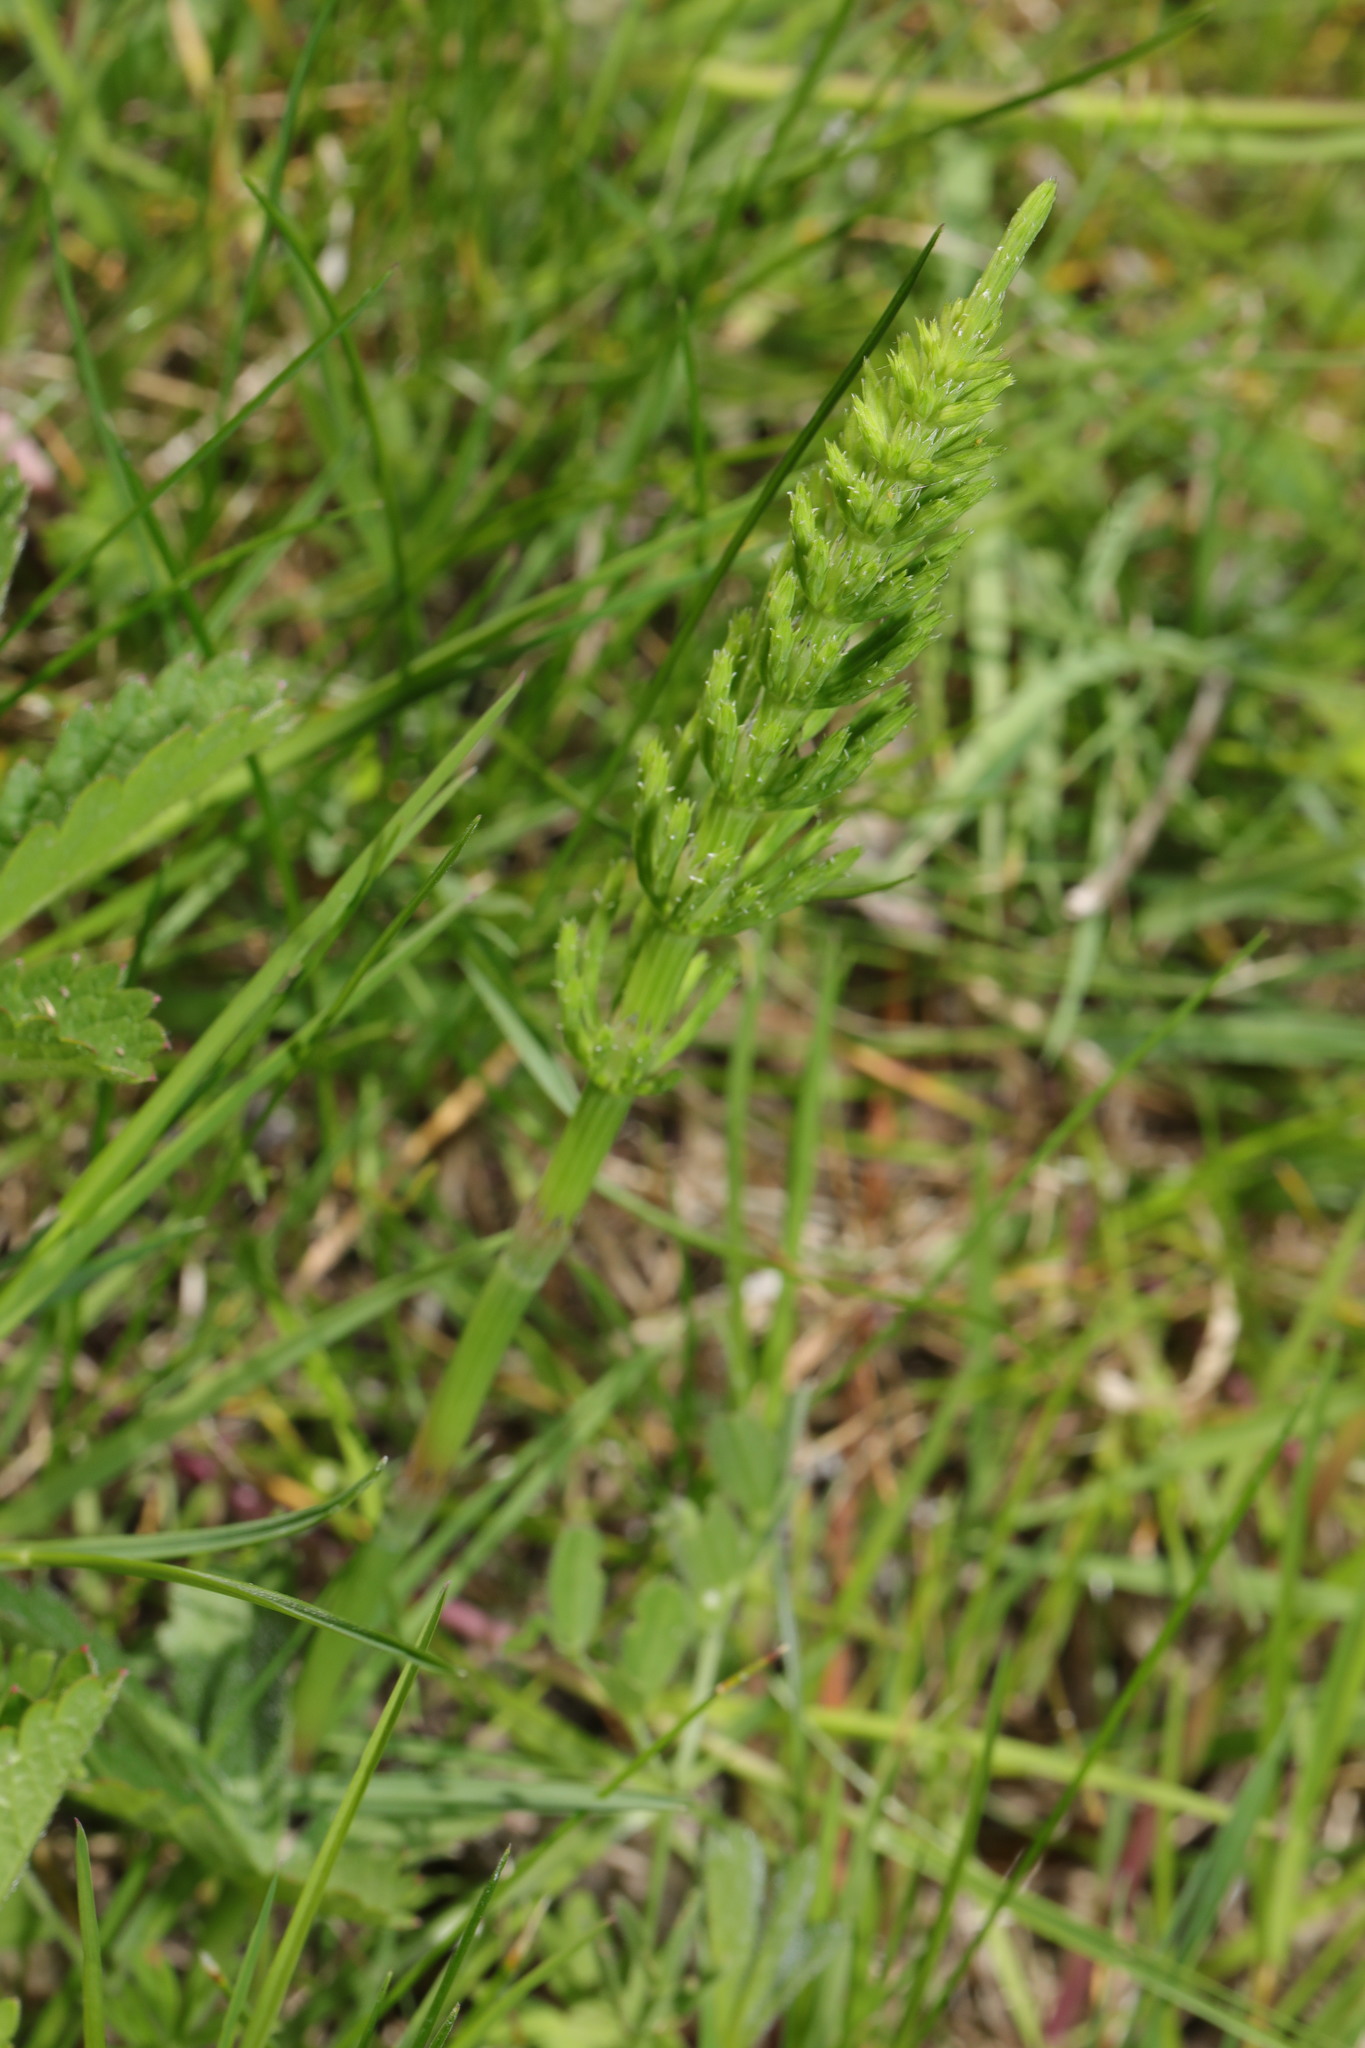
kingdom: Plantae
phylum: Tracheophyta
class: Polypodiopsida
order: Equisetales
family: Equisetaceae
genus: Equisetum
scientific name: Equisetum arvense
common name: Field horsetail
